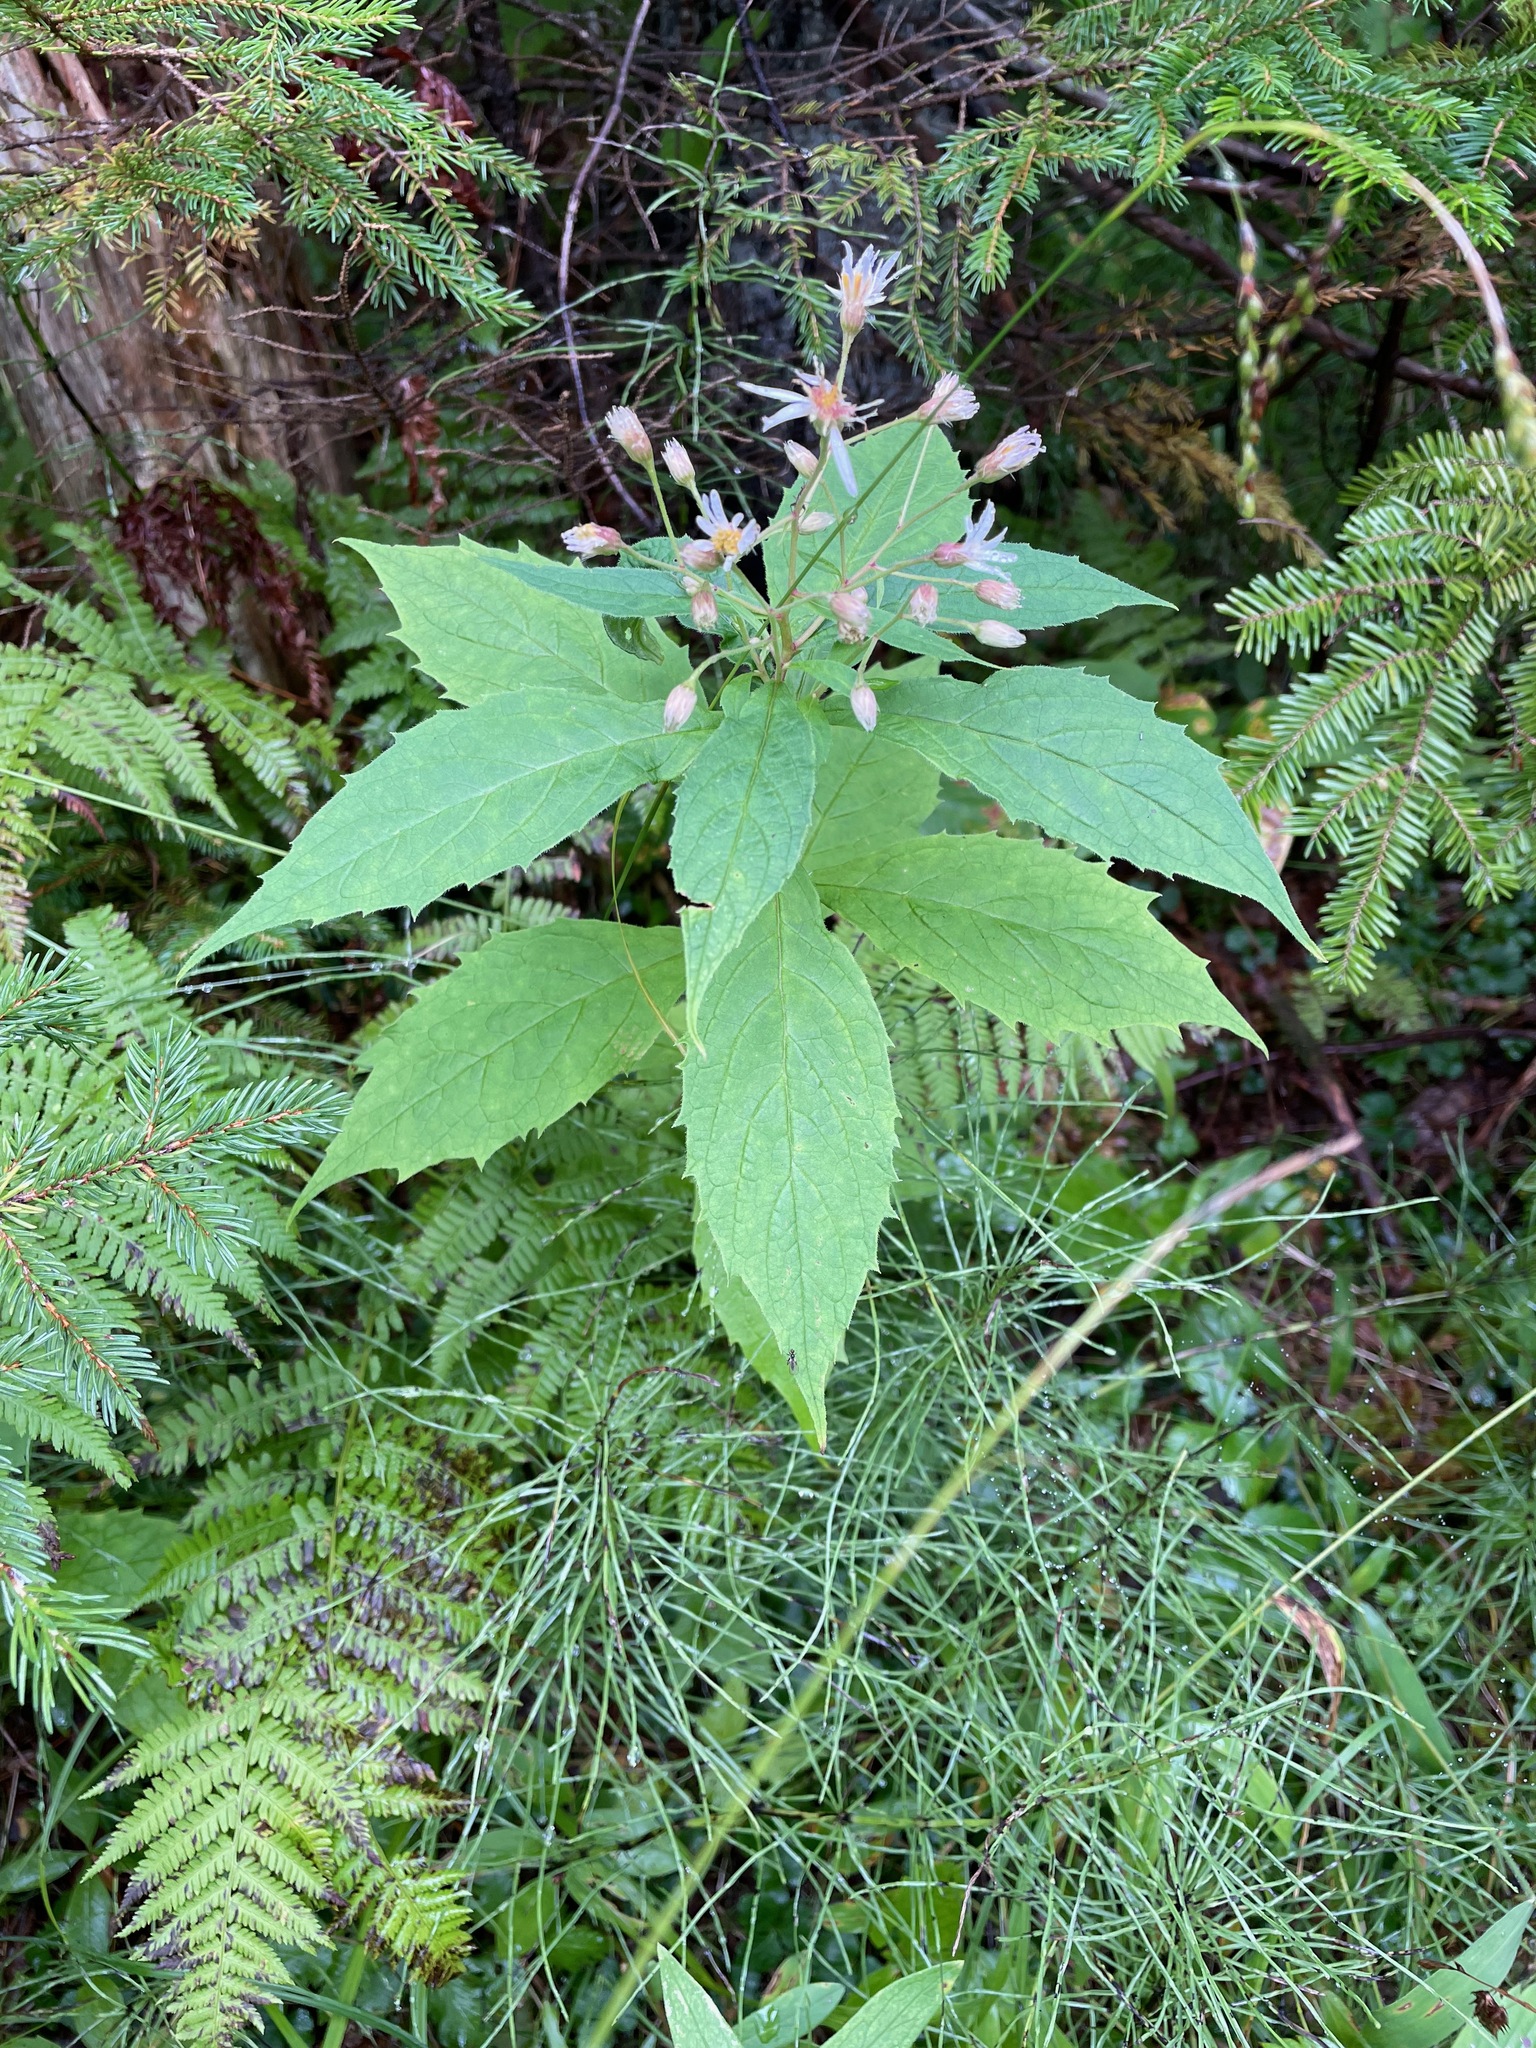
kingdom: Plantae
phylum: Tracheophyta
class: Magnoliopsida
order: Asterales
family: Asteraceae
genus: Oclemena
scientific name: Oclemena acuminata
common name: Mountain aster
